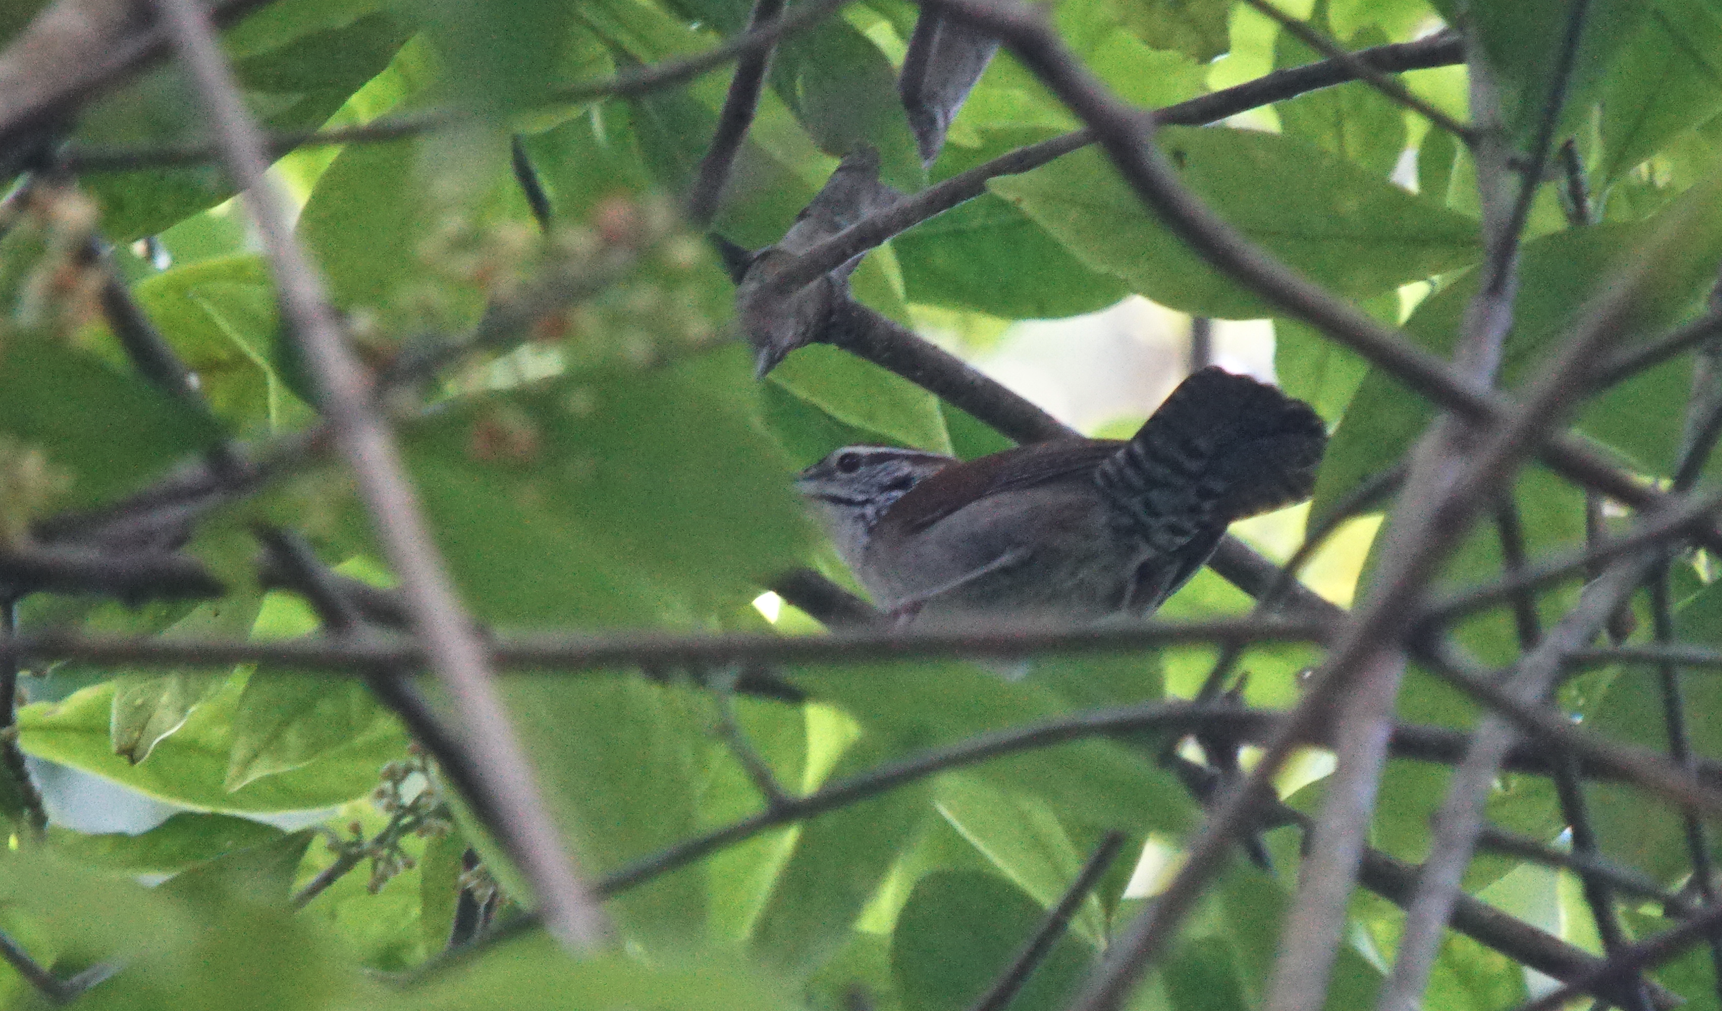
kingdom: Animalia
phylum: Chordata
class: Aves
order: Passeriformes
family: Troglodytidae
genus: Thryophilus
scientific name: Thryophilus rufalbus
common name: Rufous-and-white wren
